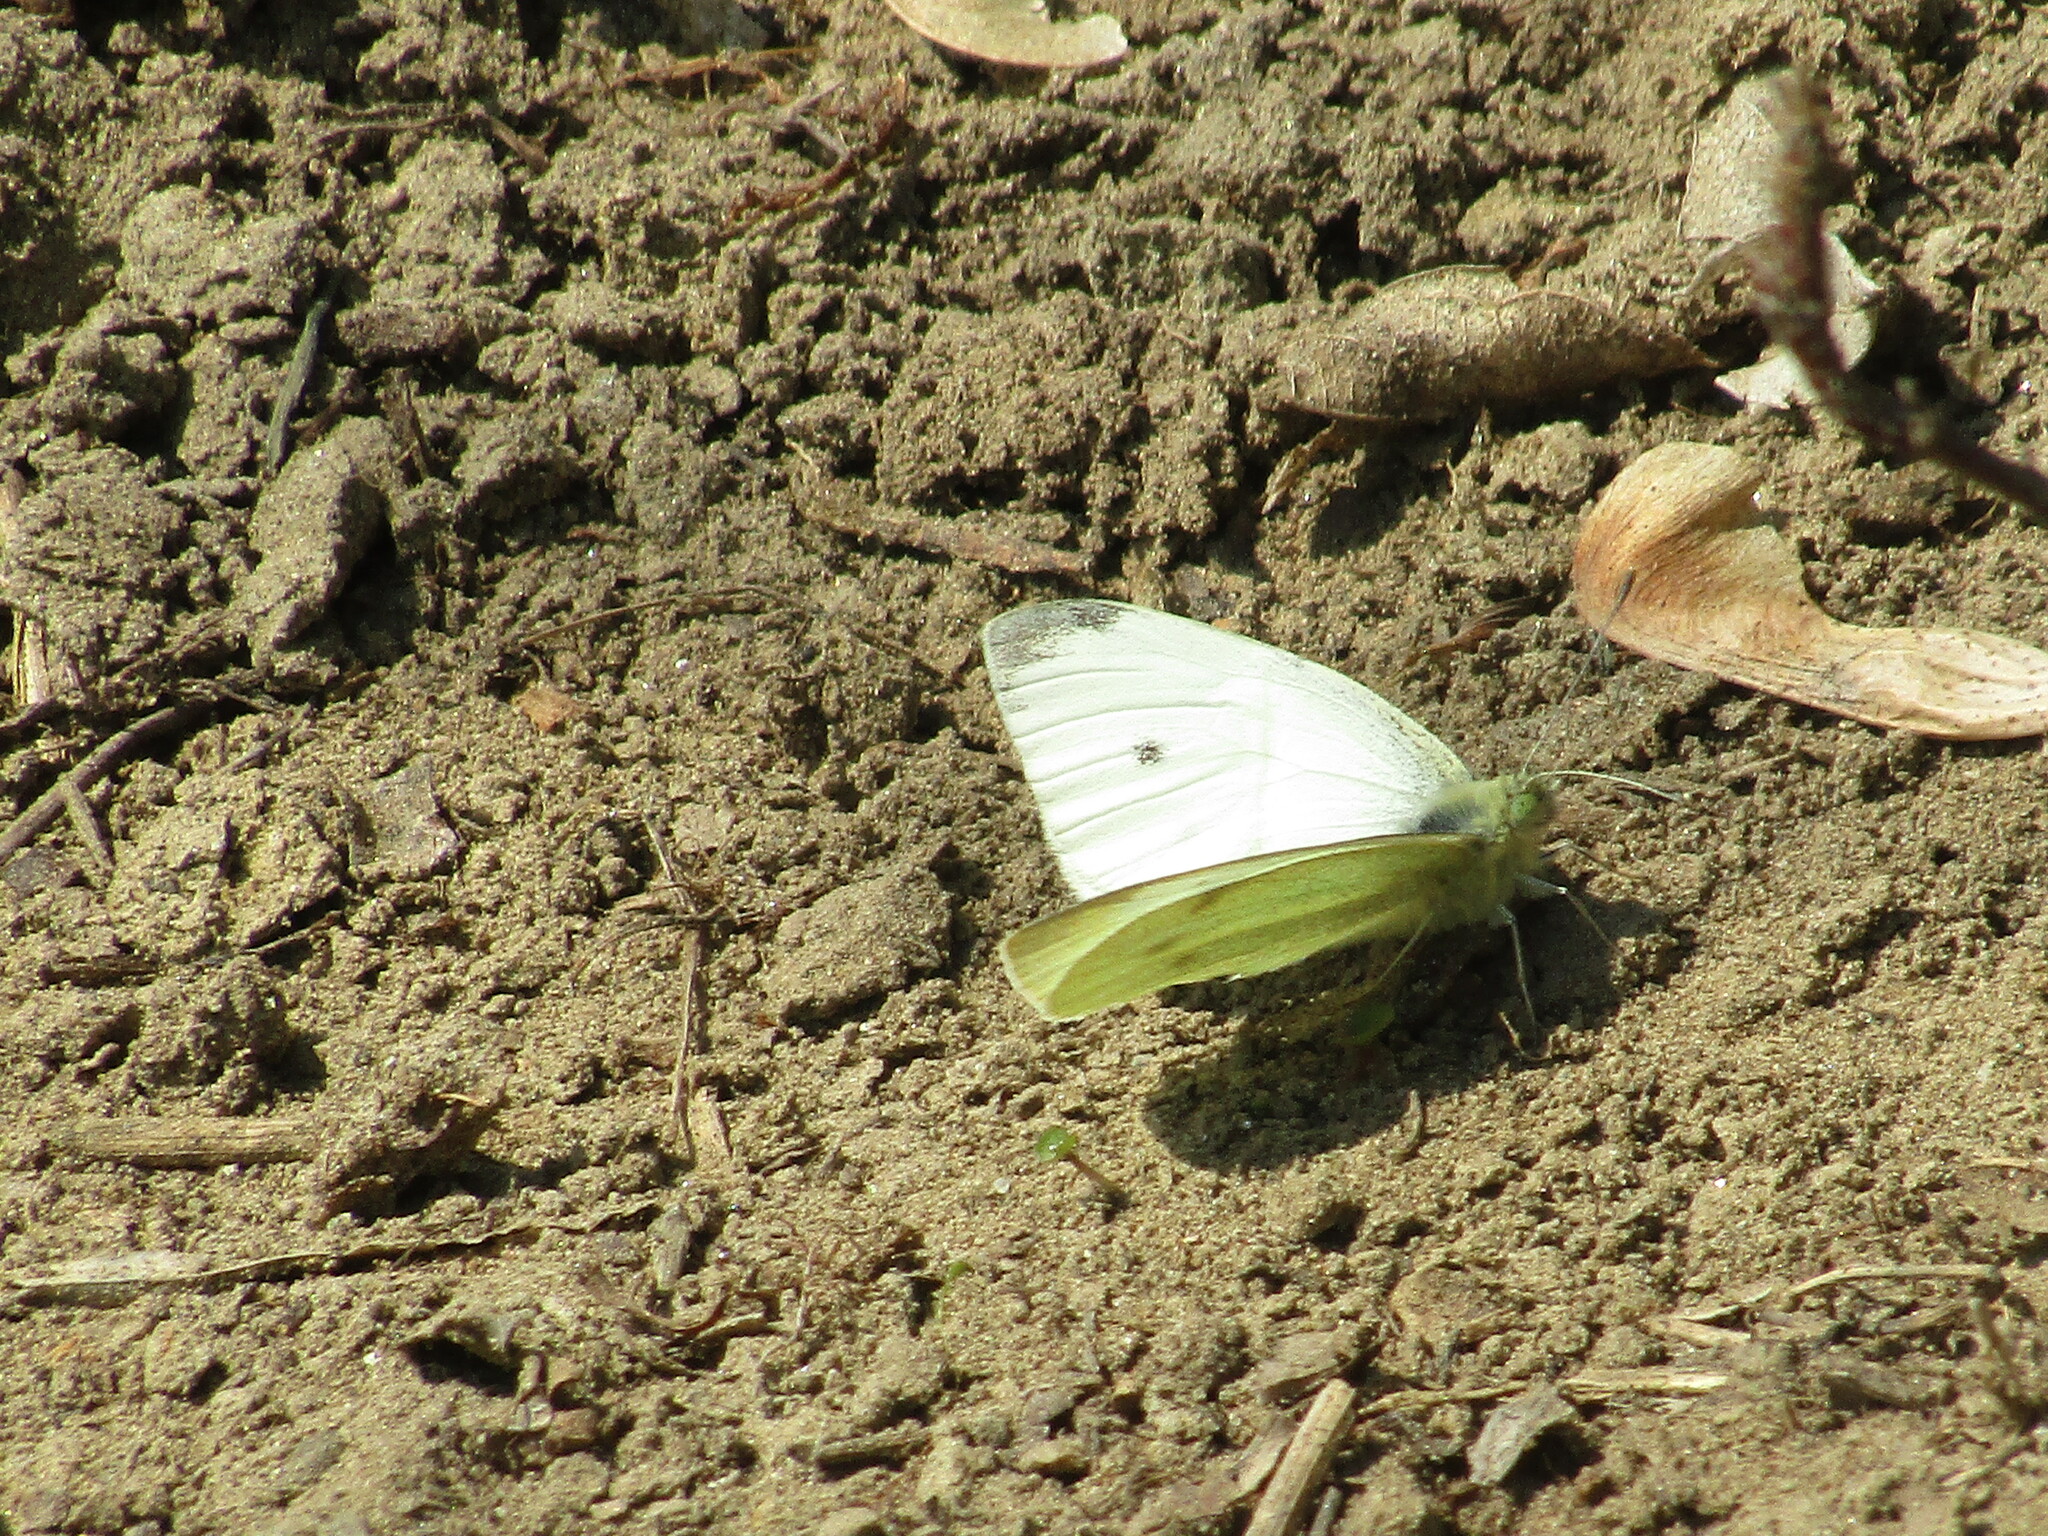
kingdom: Animalia
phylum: Arthropoda
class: Insecta
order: Lepidoptera
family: Pieridae
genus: Pieris
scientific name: Pieris rapae
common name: Small white
